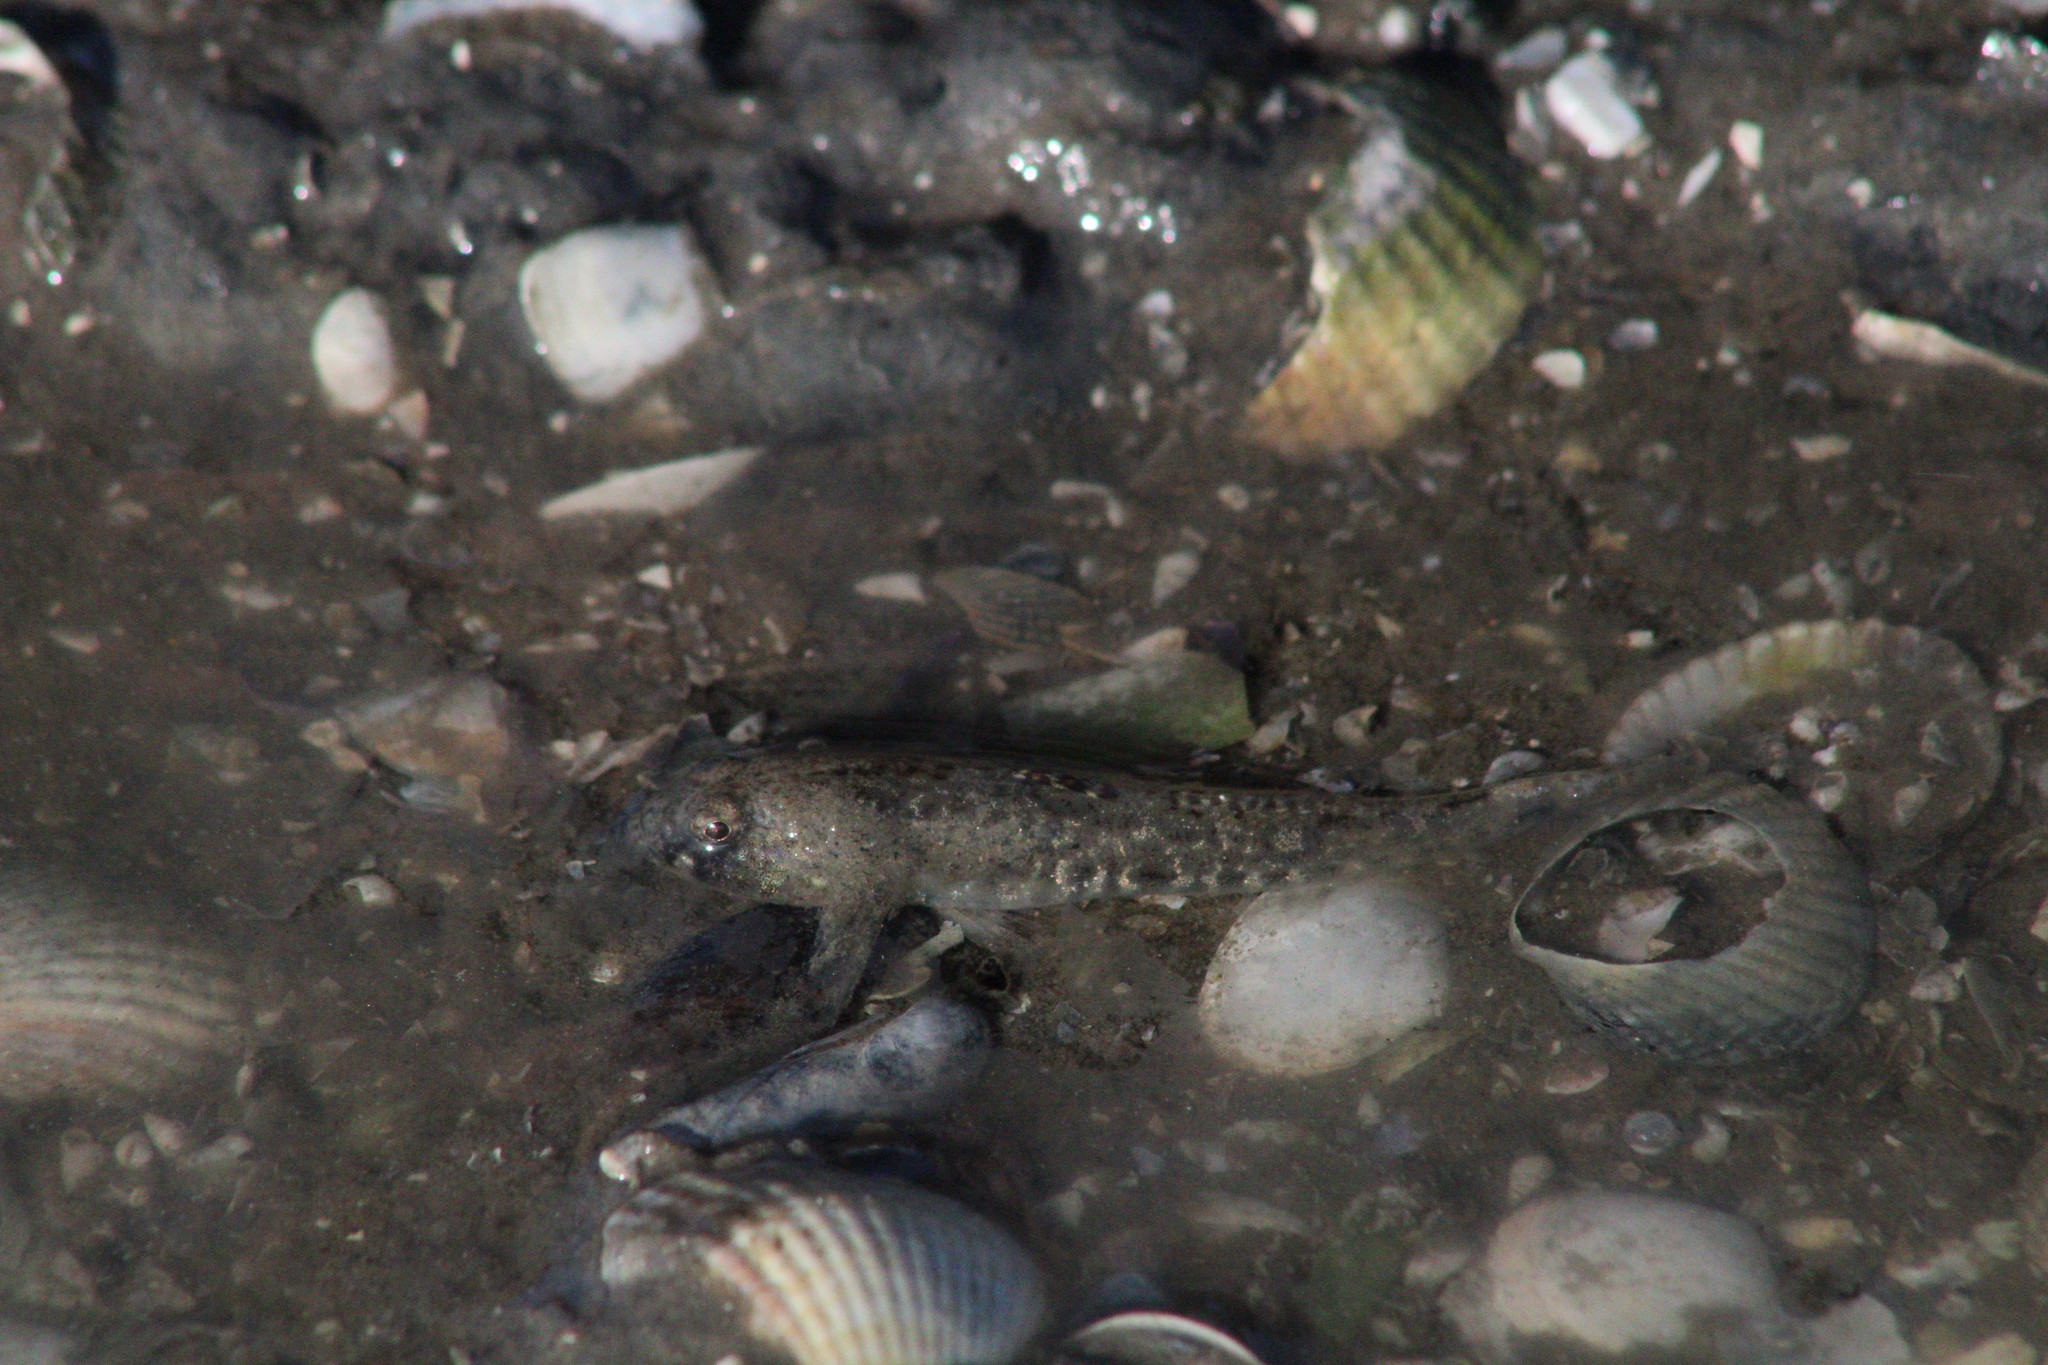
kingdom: Animalia
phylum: Chordata
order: Perciformes
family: Gobiidae
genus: Pomatoschistus
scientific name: Pomatoschistus microps
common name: Common goby
